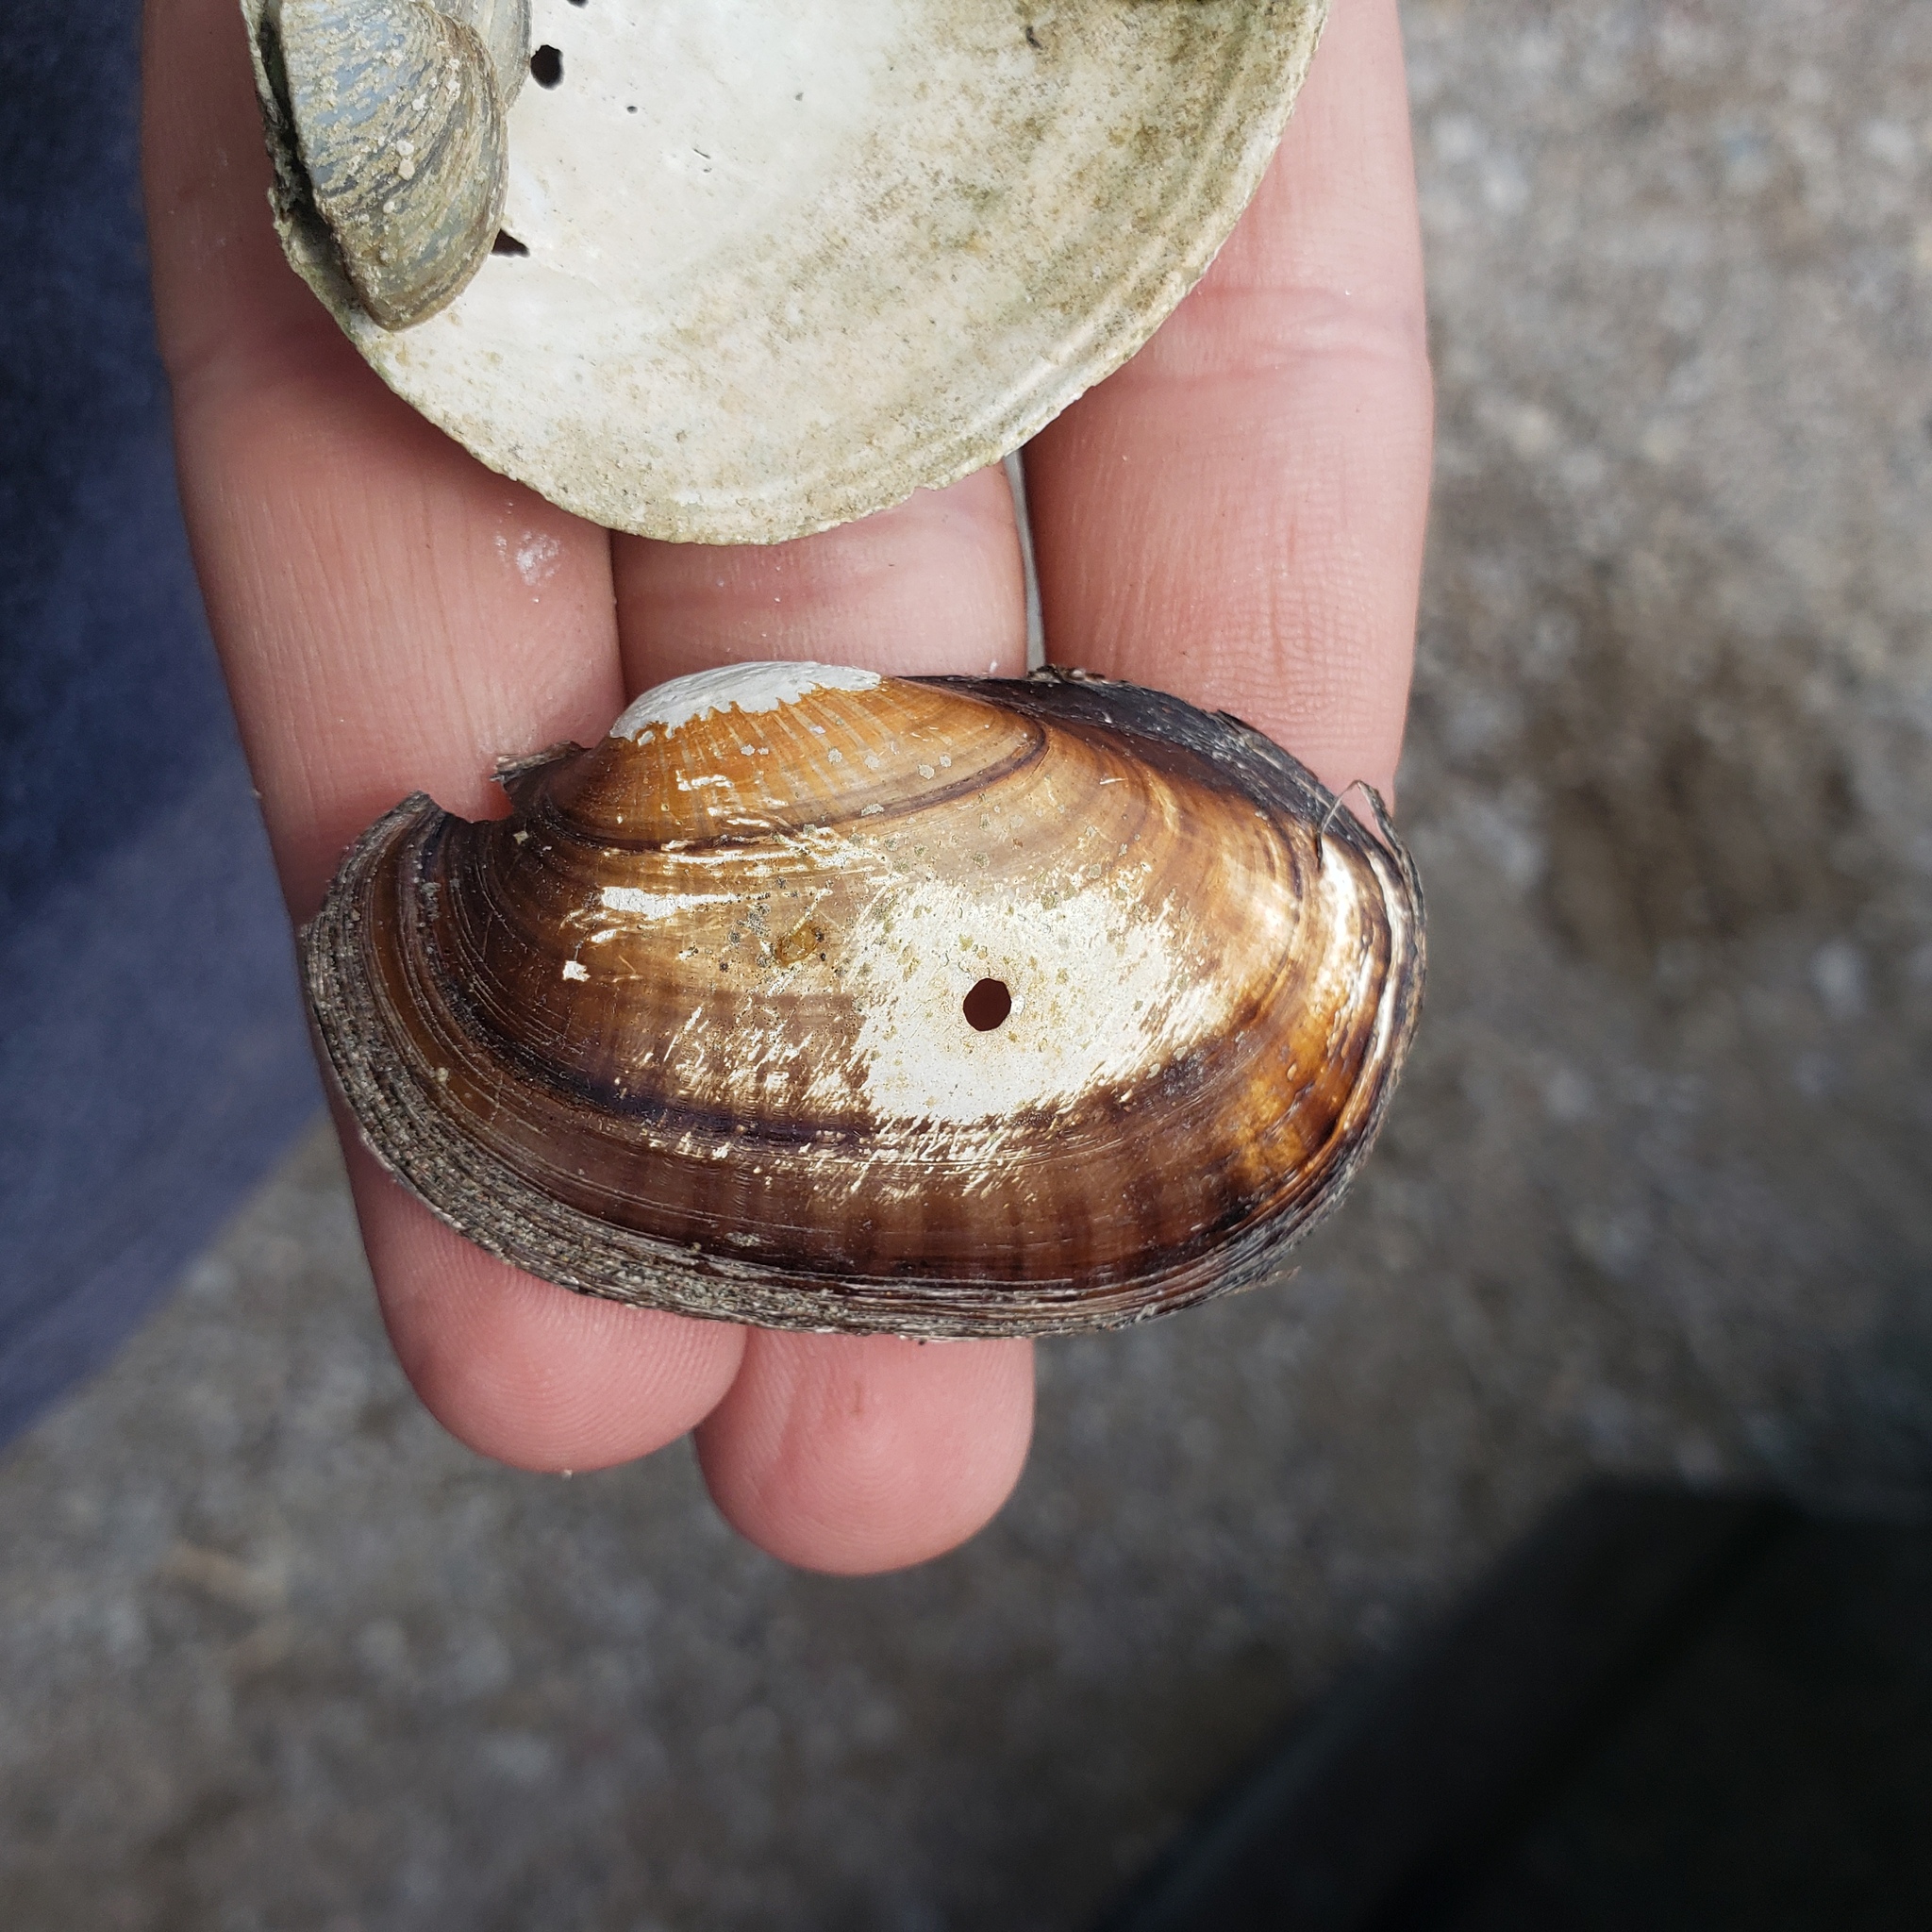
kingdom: Animalia
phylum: Mollusca
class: Bivalvia
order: Unionida
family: Unionidae
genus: Lampsilis
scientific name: Lampsilis siliquoidea
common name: Fatmucket
